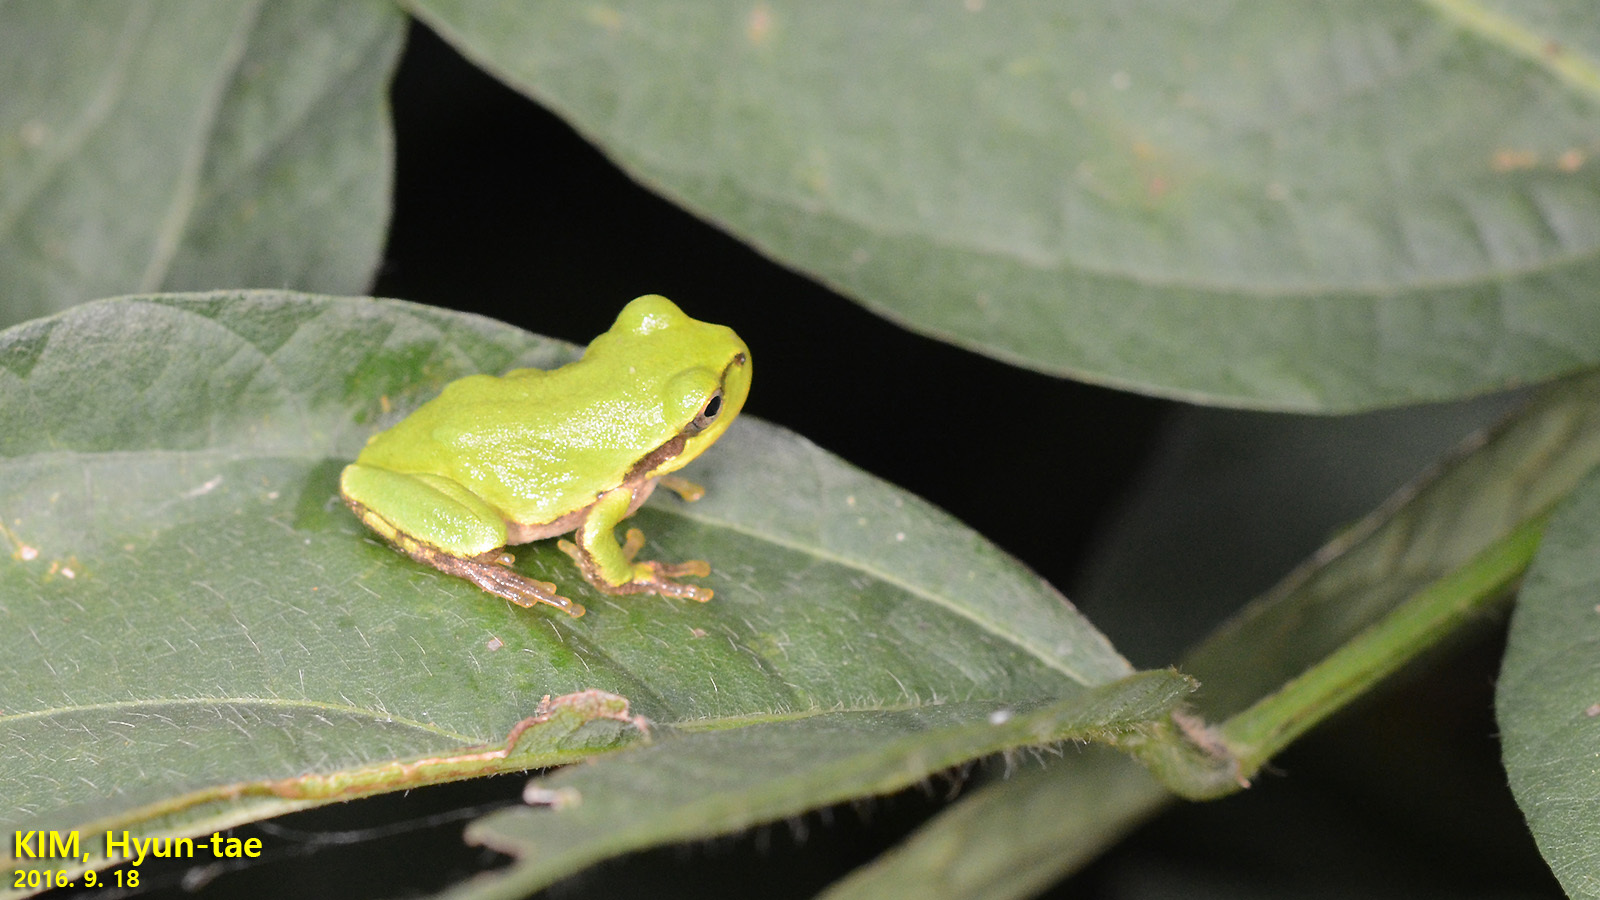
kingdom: Animalia
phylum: Chordata
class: Amphibia
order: Anura
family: Hylidae
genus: Dryophytes
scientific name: Dryophytes japonicus
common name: Japanese treefrog
